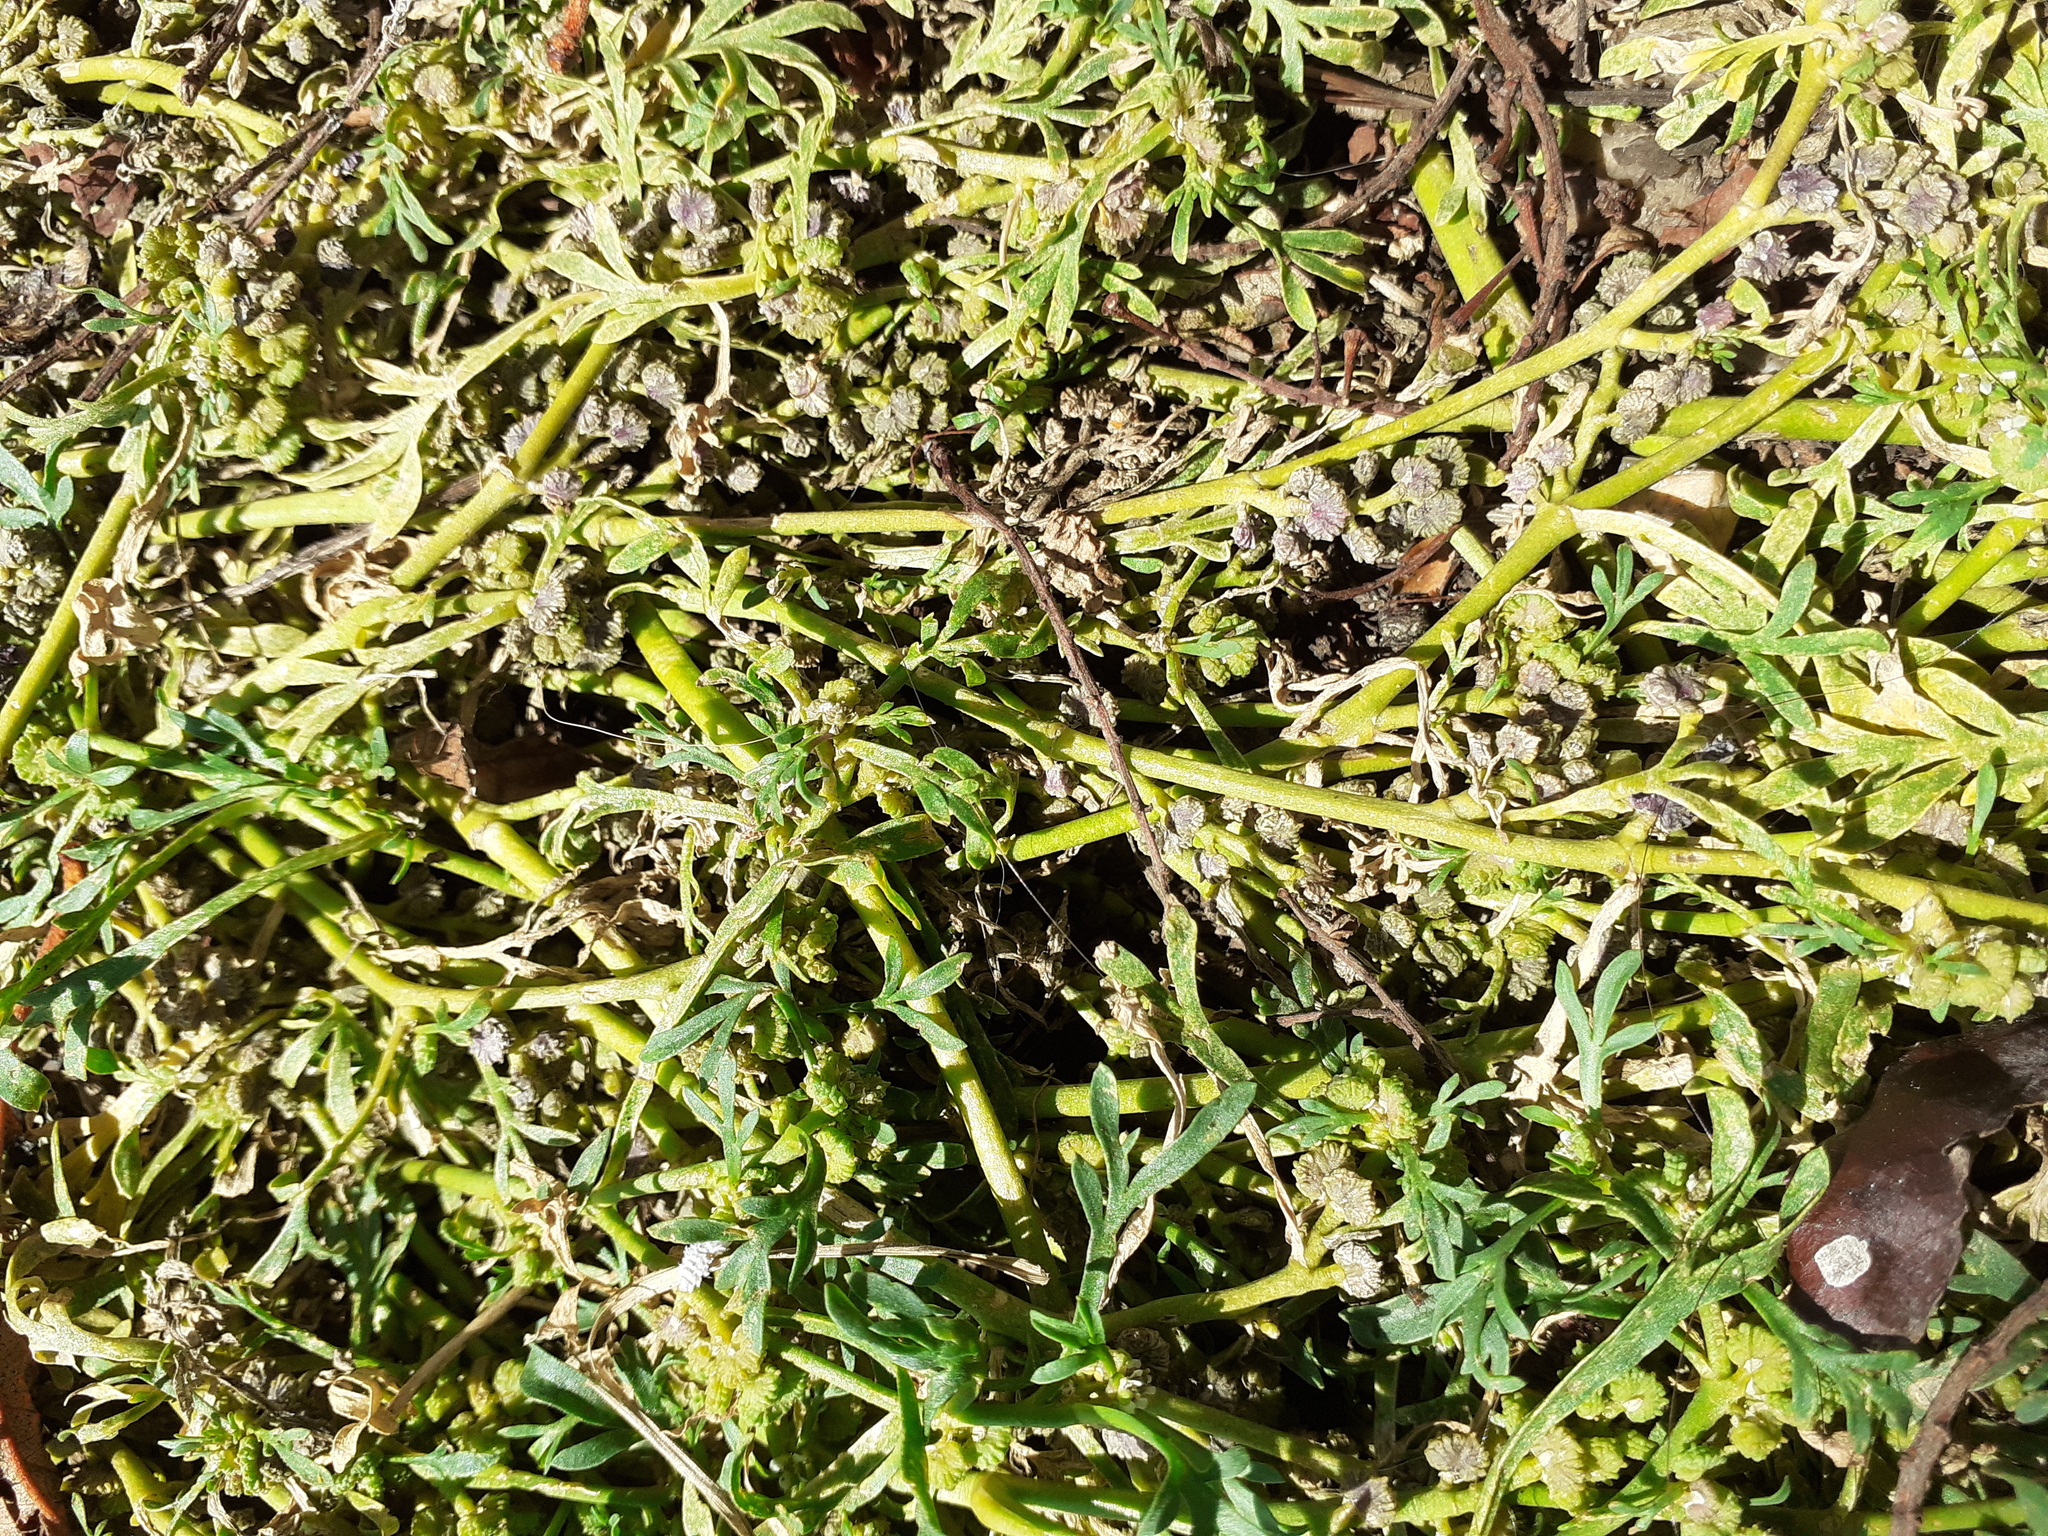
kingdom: Plantae
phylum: Tracheophyta
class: Magnoliopsida
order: Brassicales
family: Brassicaceae
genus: Lepidium
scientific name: Lepidium coronopus
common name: Greater swinecress
